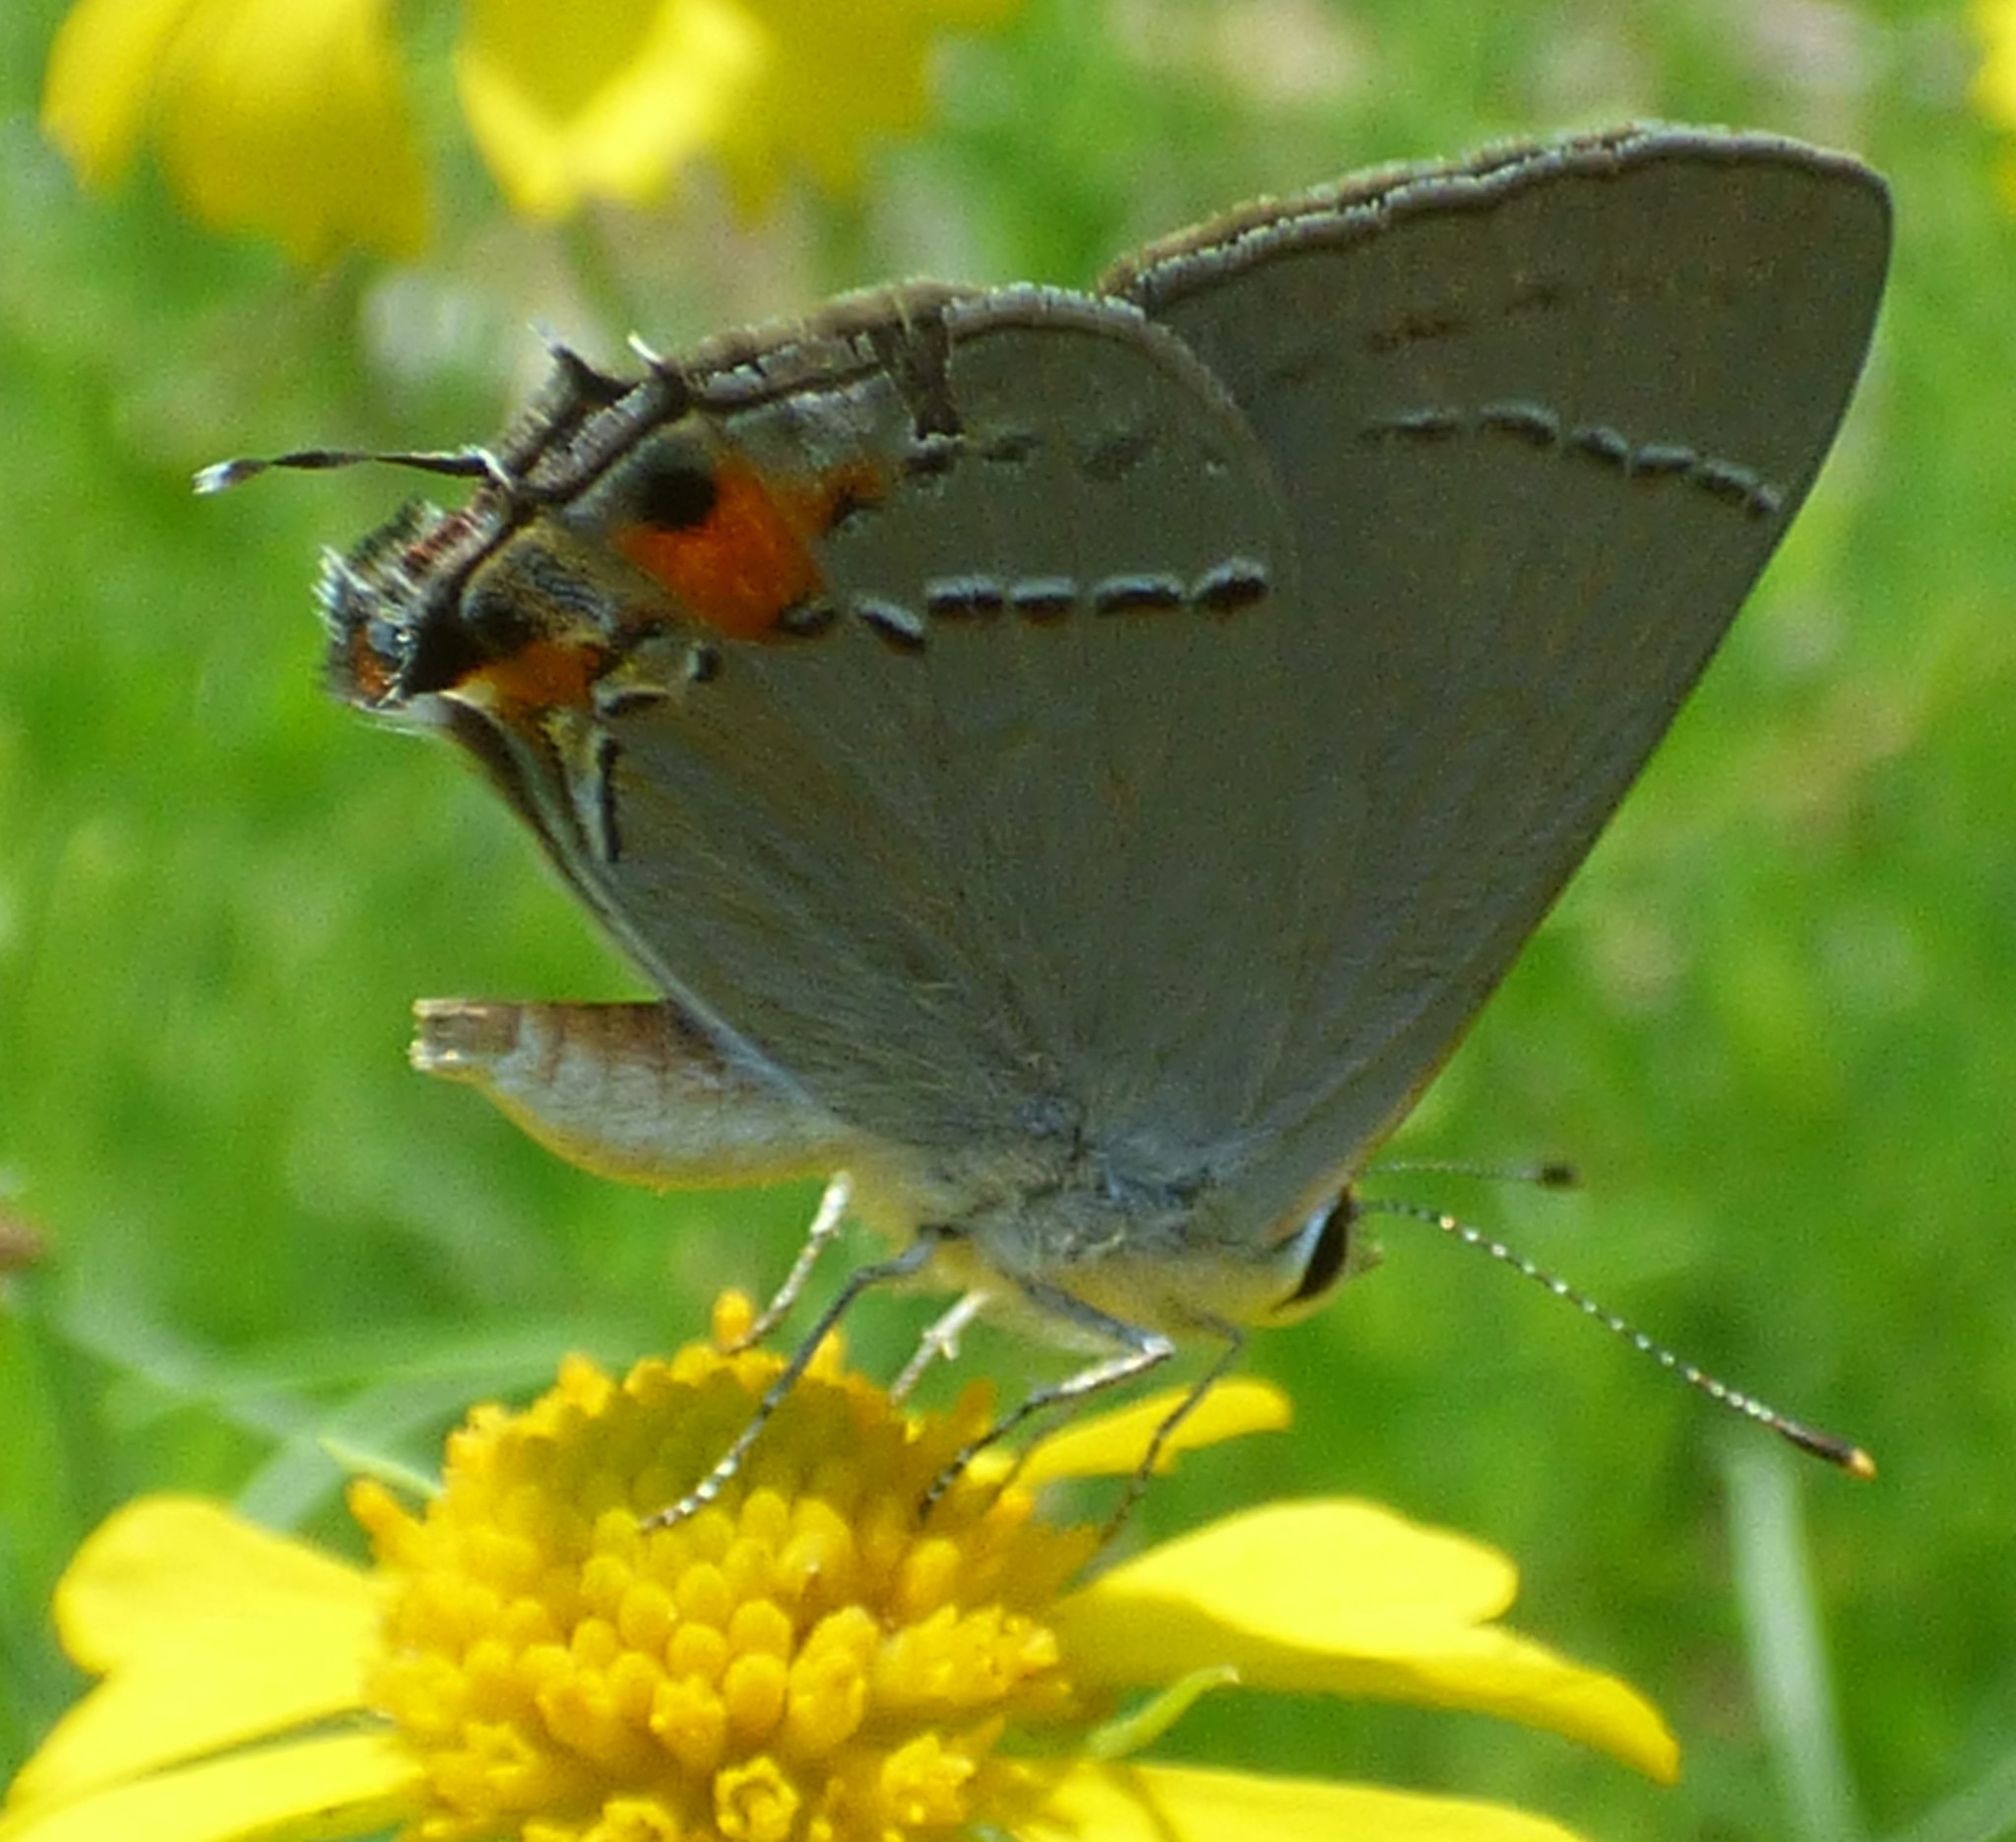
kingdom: Animalia
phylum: Arthropoda
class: Insecta
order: Lepidoptera
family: Lycaenidae
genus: Strymon
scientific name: Strymon melinus
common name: Gray hairstreak
